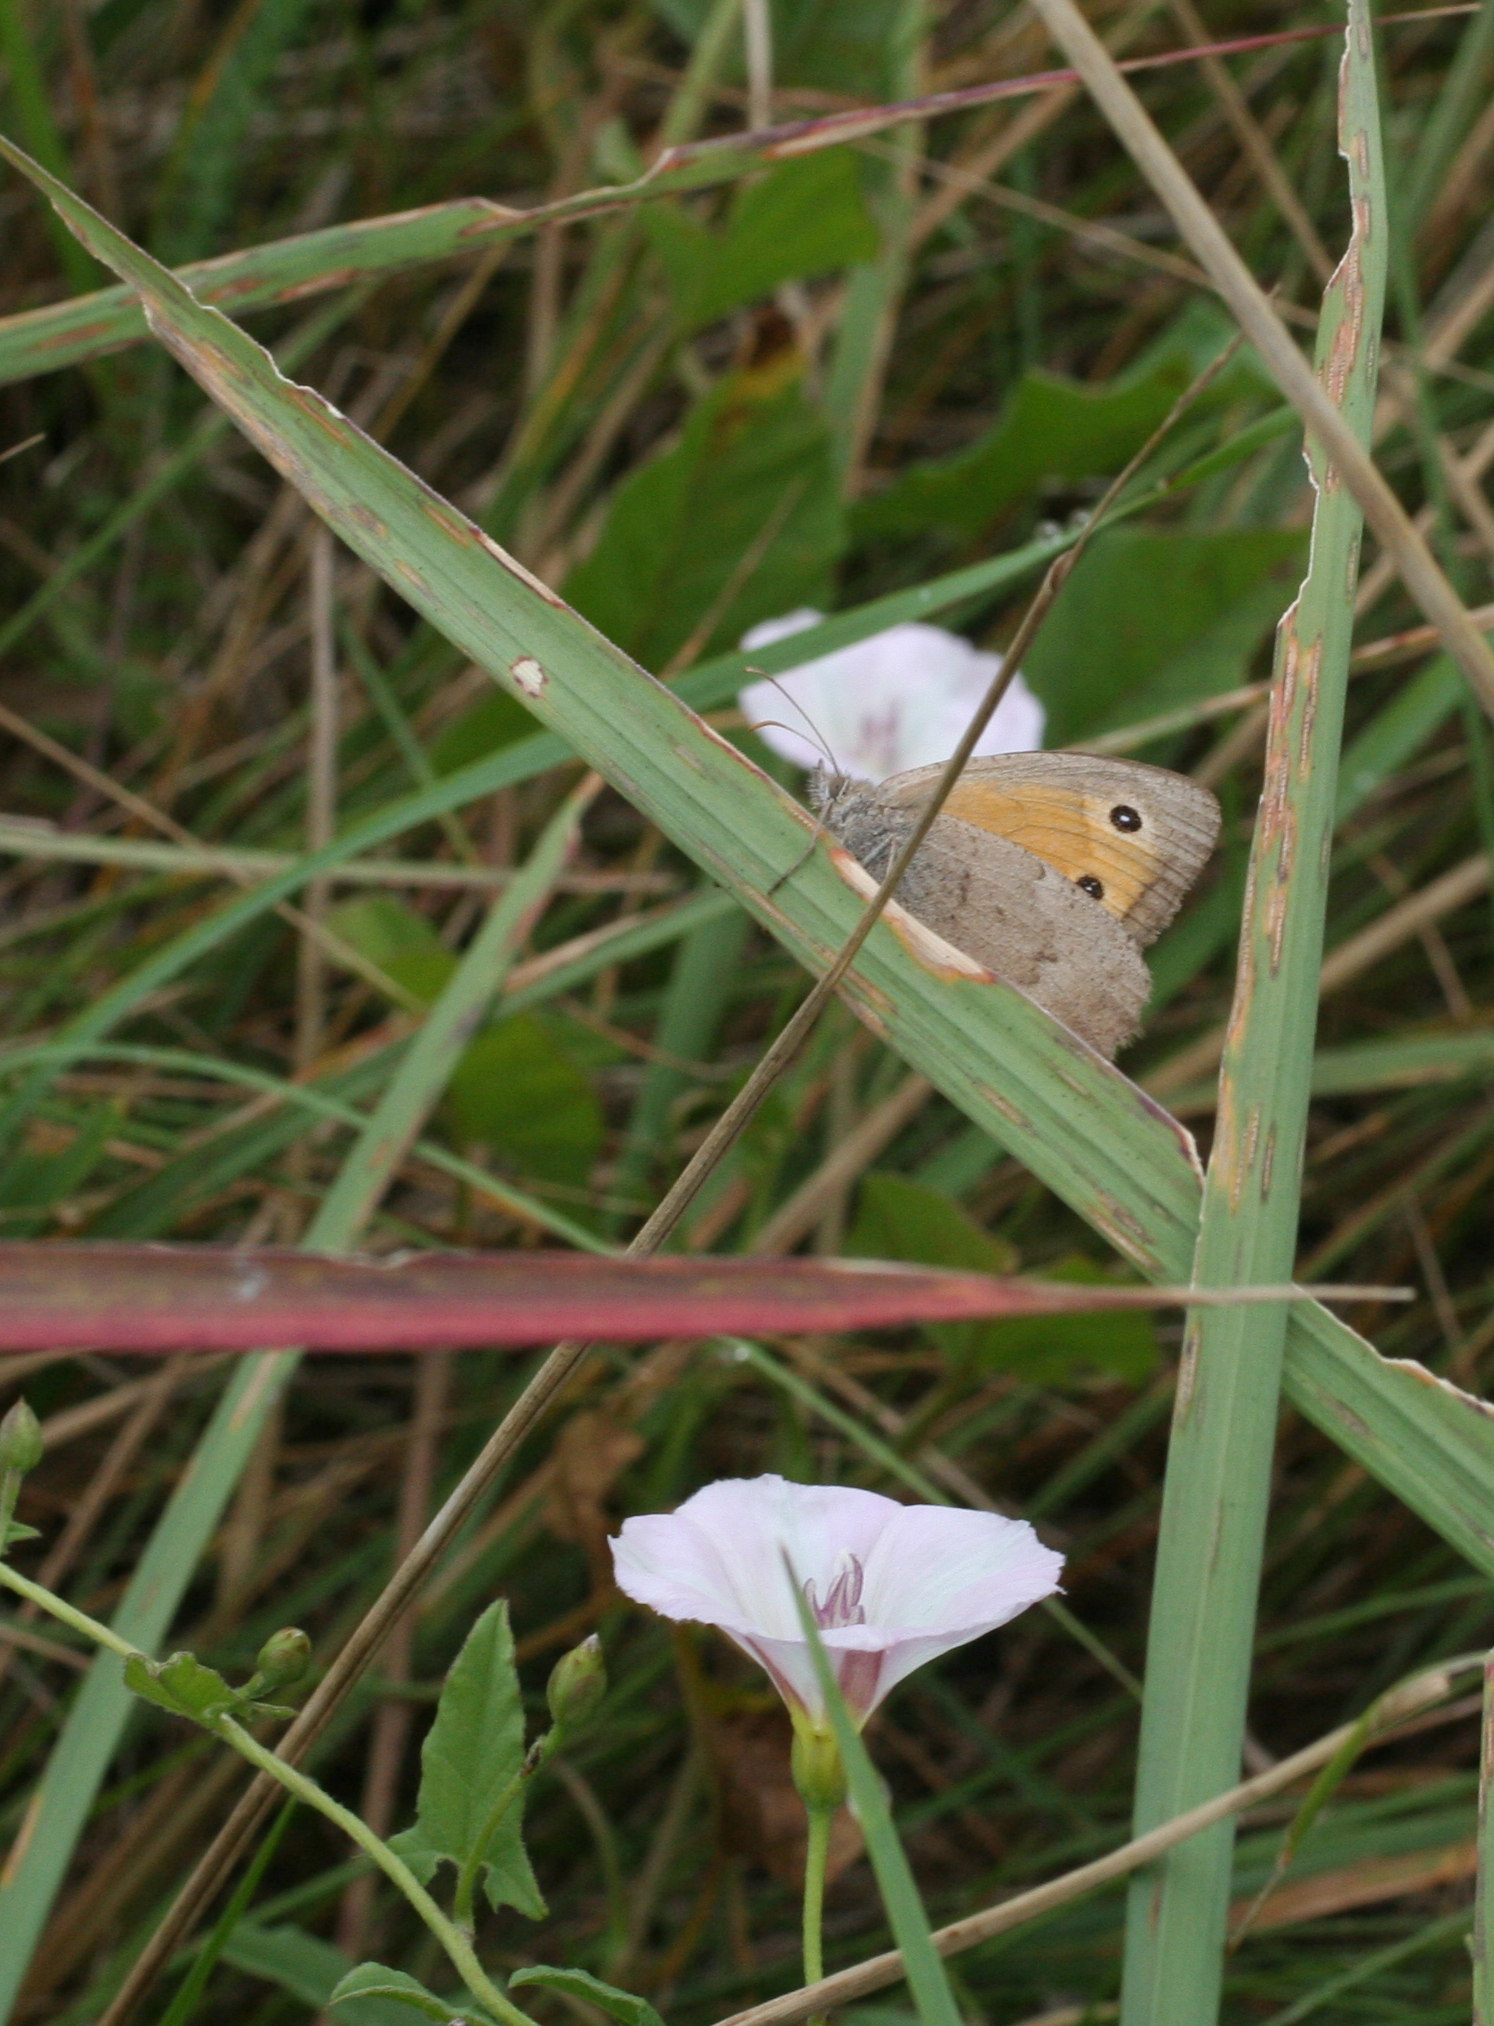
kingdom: Animalia
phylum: Arthropoda
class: Insecta
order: Lepidoptera
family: Nymphalidae
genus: Hyponephele
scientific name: Hyponephele lycaon
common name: Dusky meadow brown
